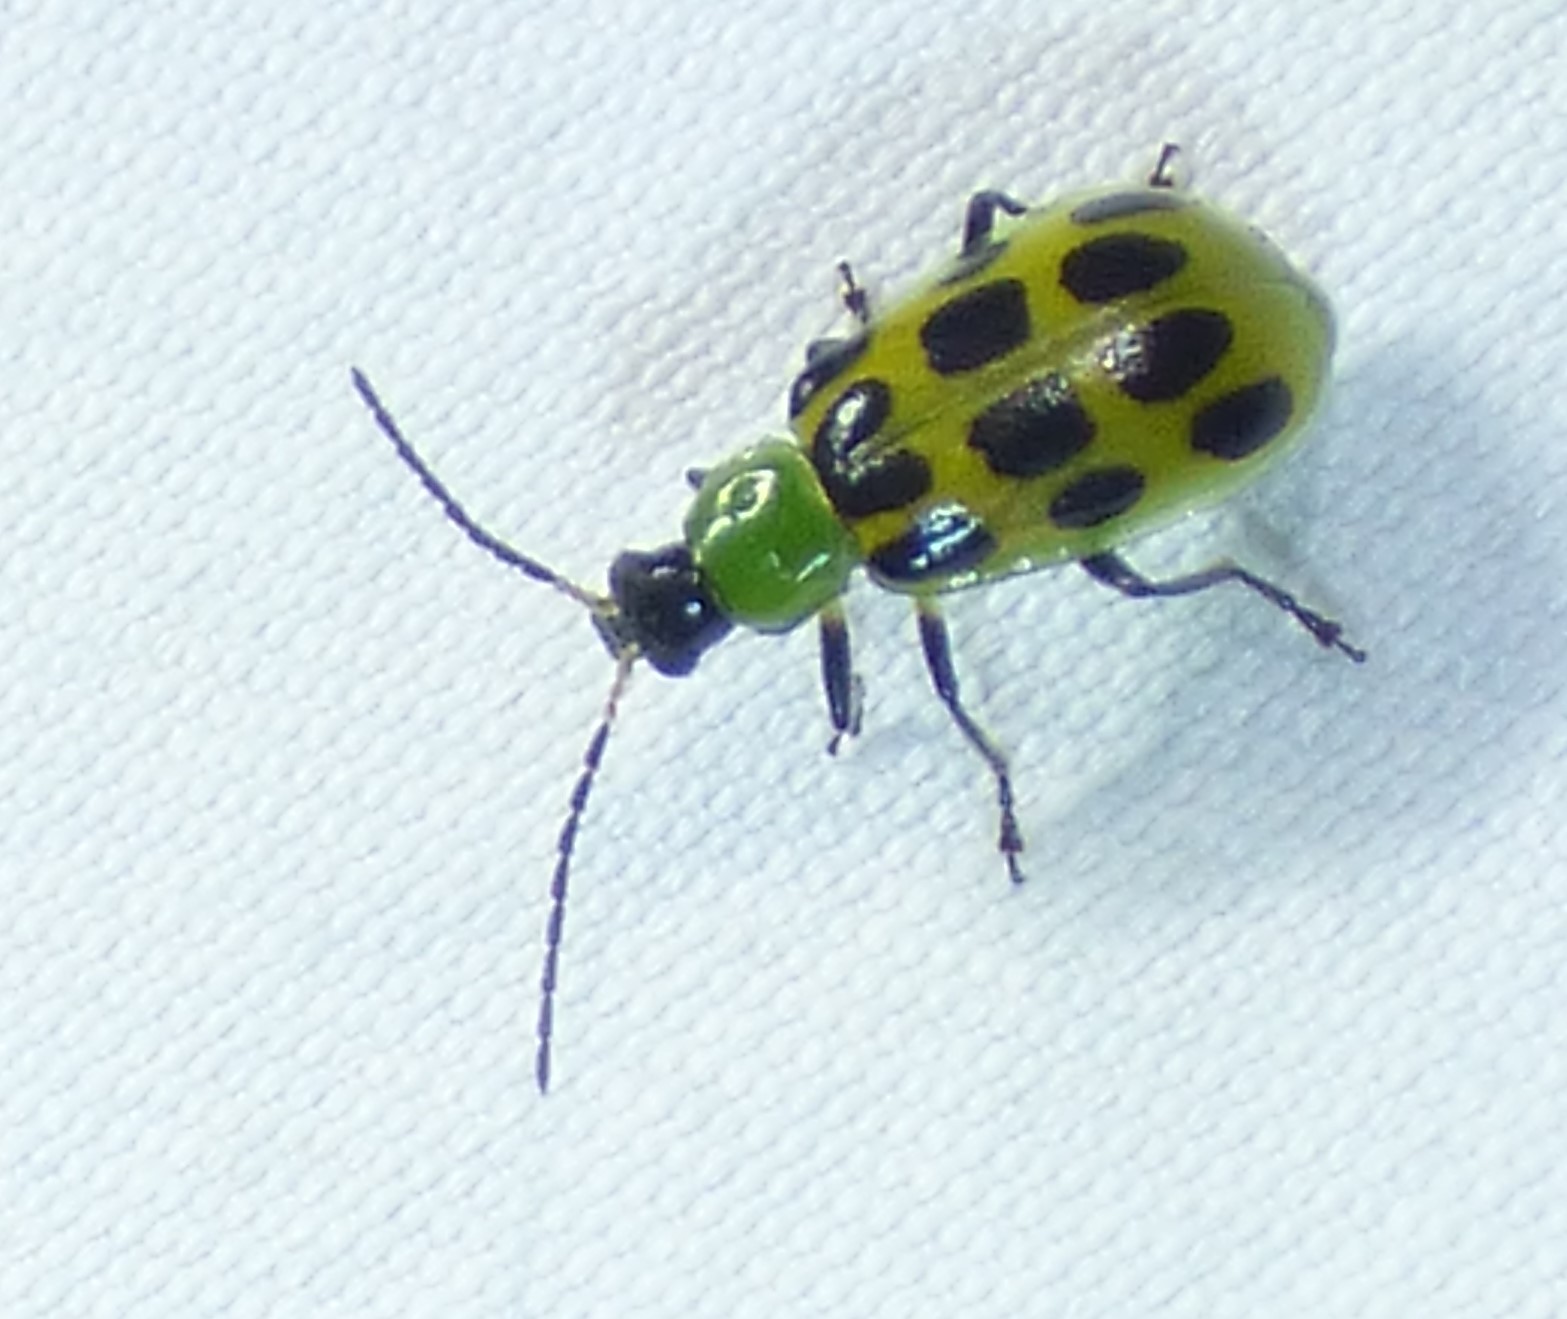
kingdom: Animalia
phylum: Arthropoda
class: Insecta
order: Coleoptera
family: Chrysomelidae
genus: Diabrotica
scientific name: Diabrotica undecimpunctata
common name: Spotted cucumber beetle
